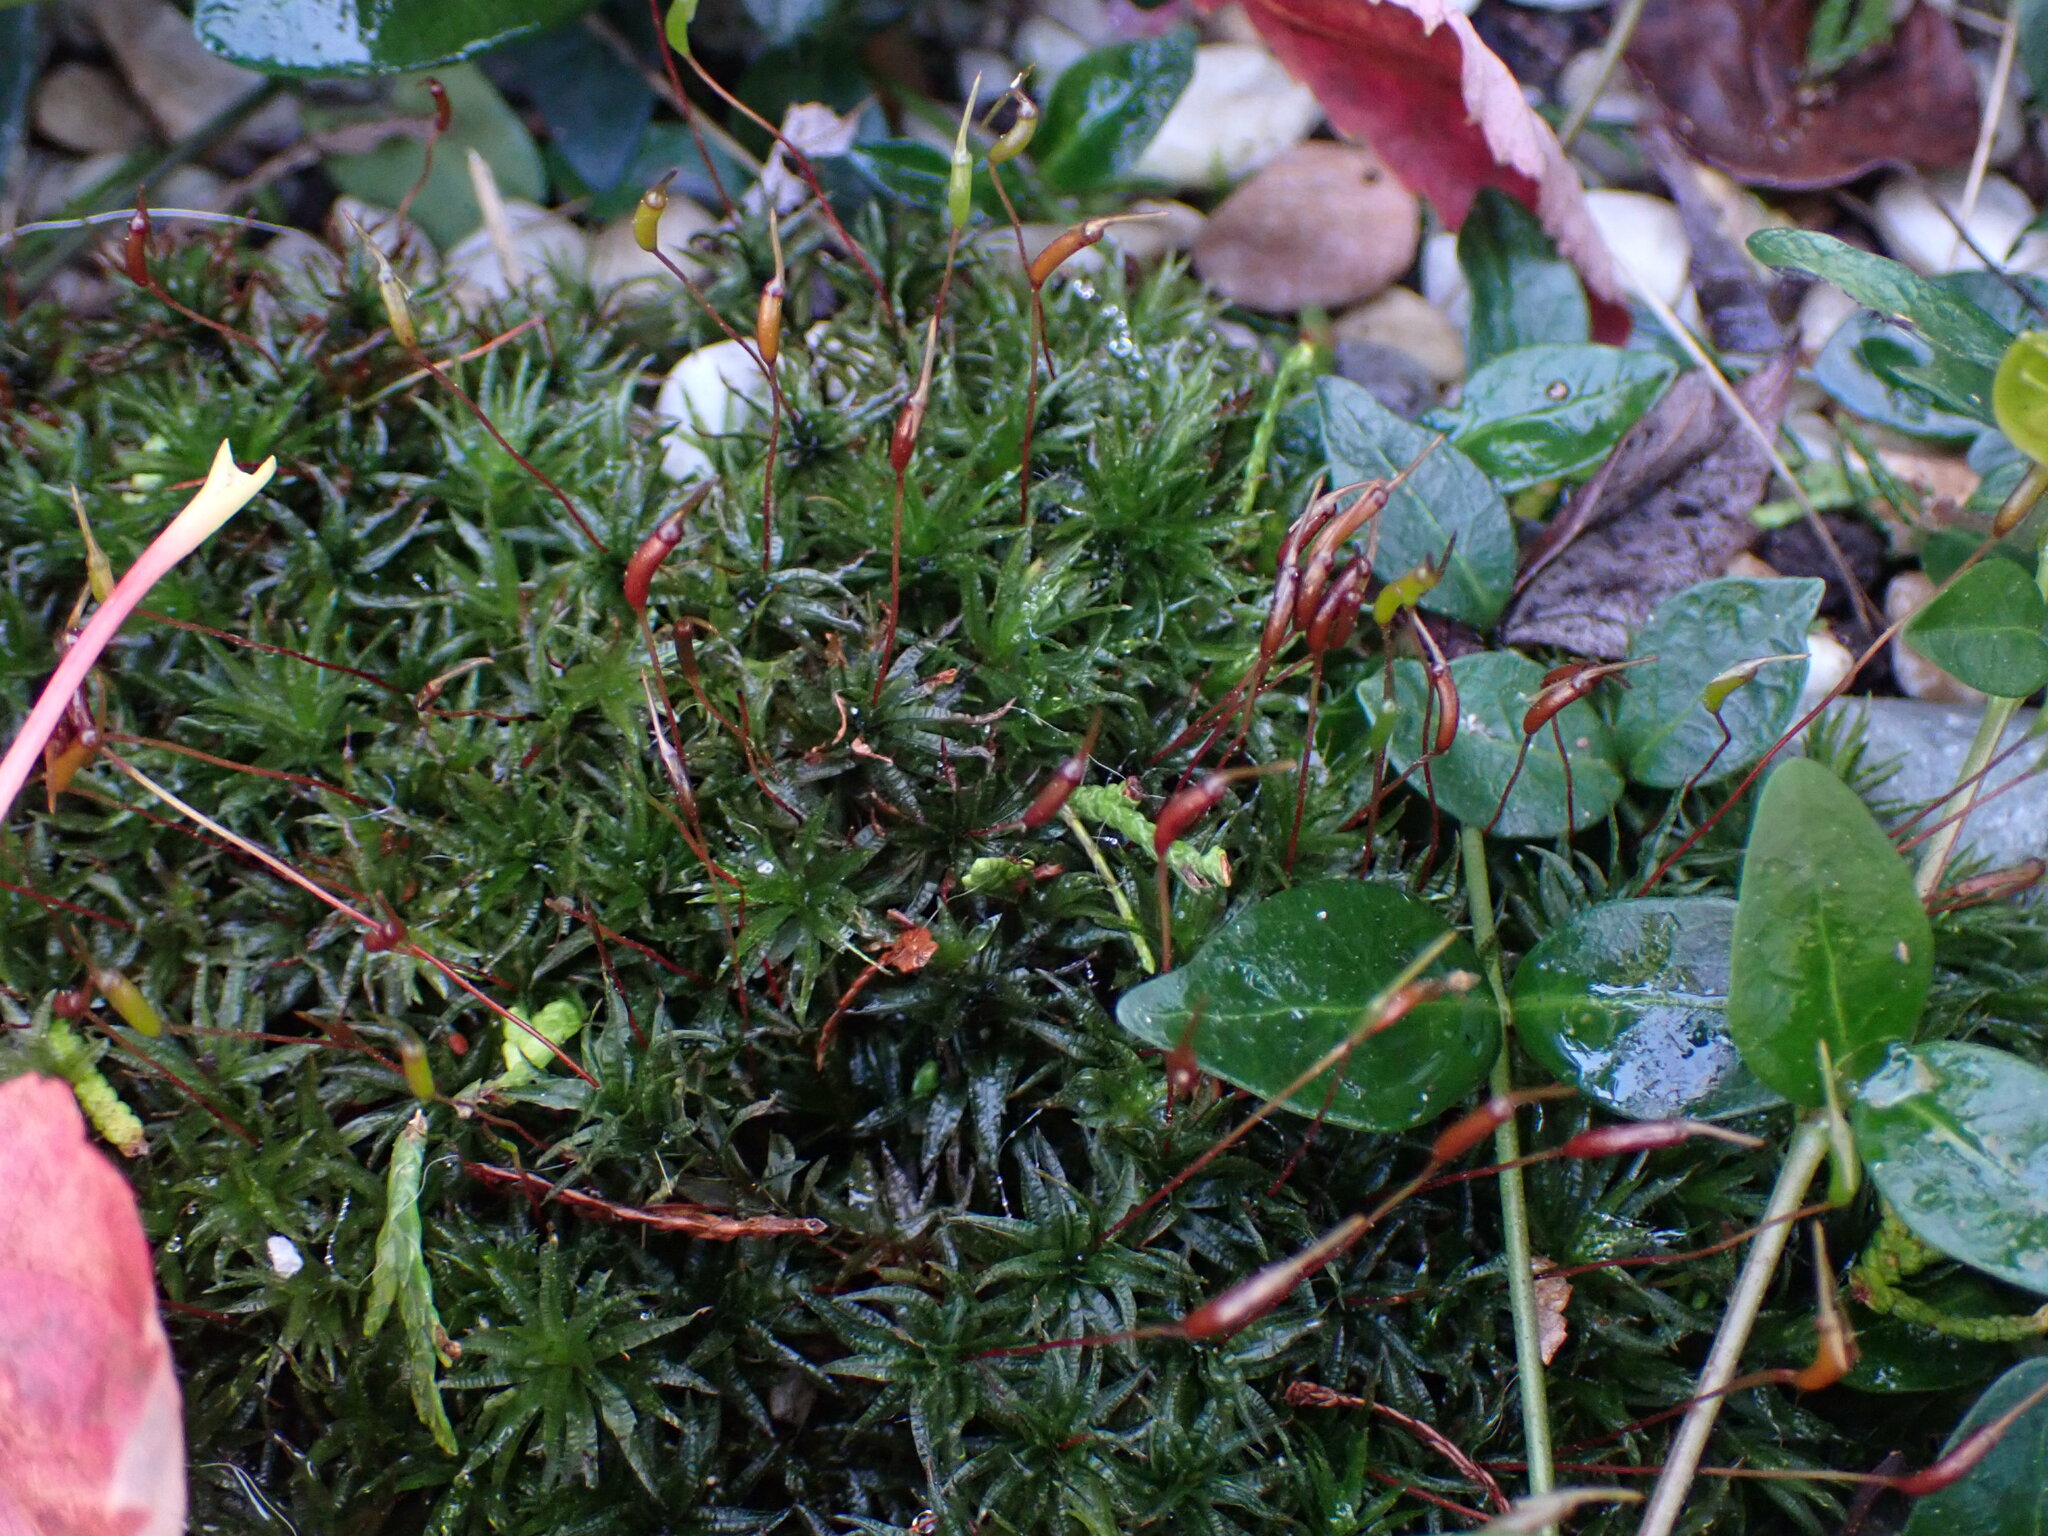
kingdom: Plantae
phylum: Bryophyta
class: Polytrichopsida
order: Polytrichales
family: Polytrichaceae
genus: Atrichum
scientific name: Atrichum undulatum
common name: Common smoothcap
